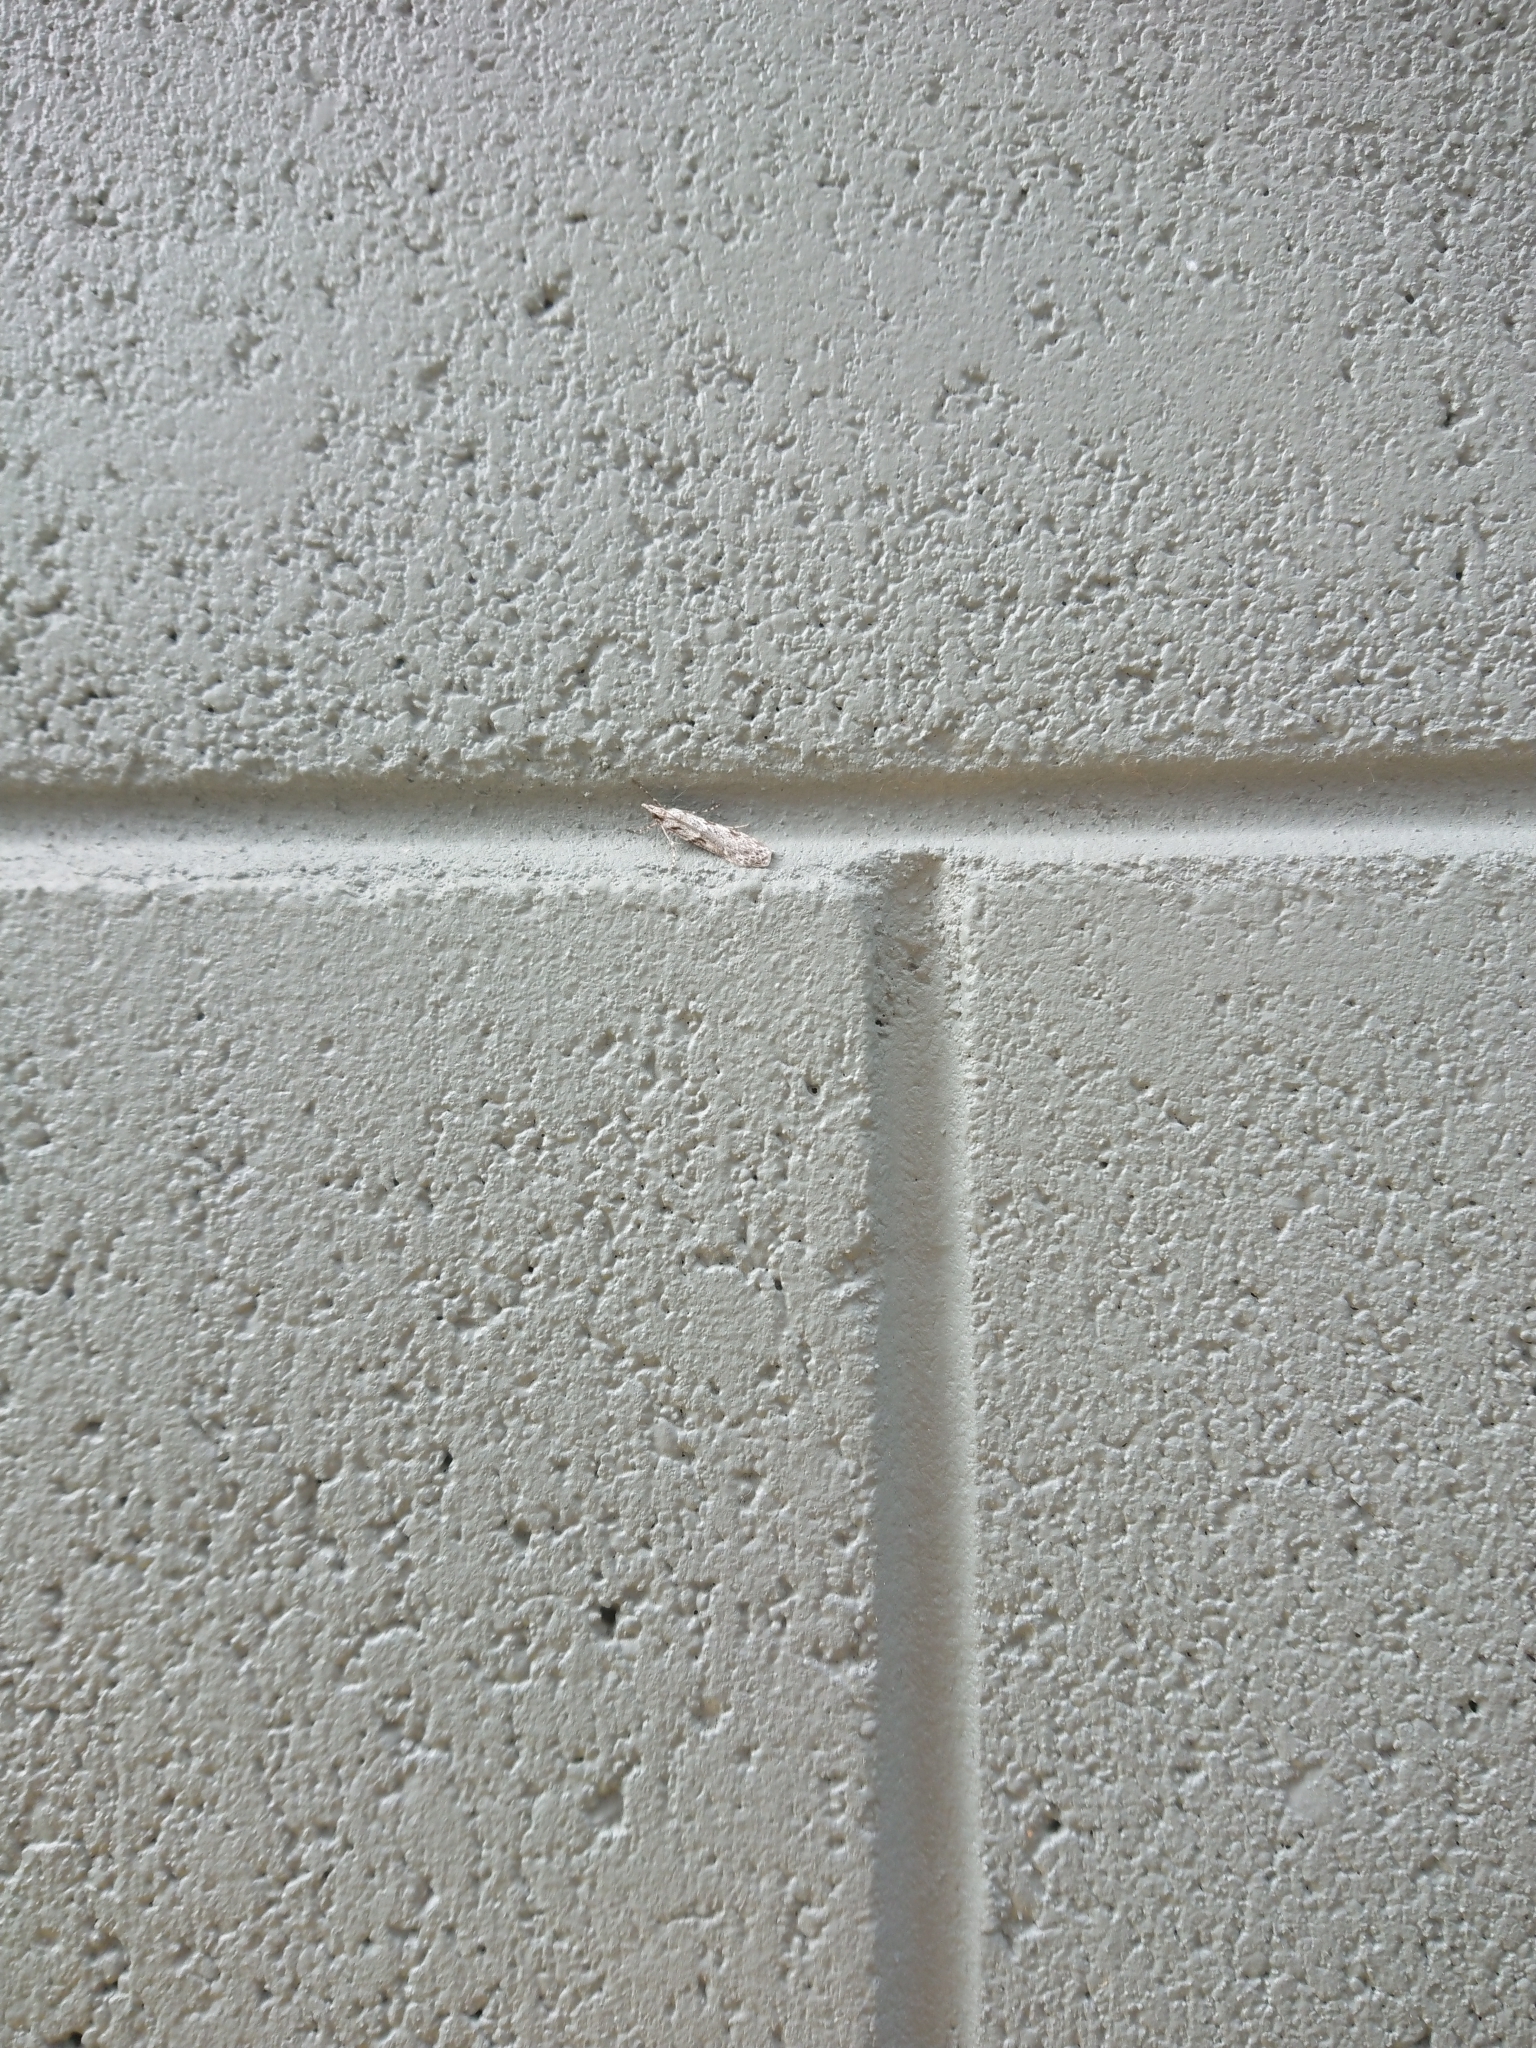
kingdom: Animalia
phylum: Arthropoda
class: Insecta
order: Lepidoptera
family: Crambidae
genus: Scoparia
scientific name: Scoparia halopis
